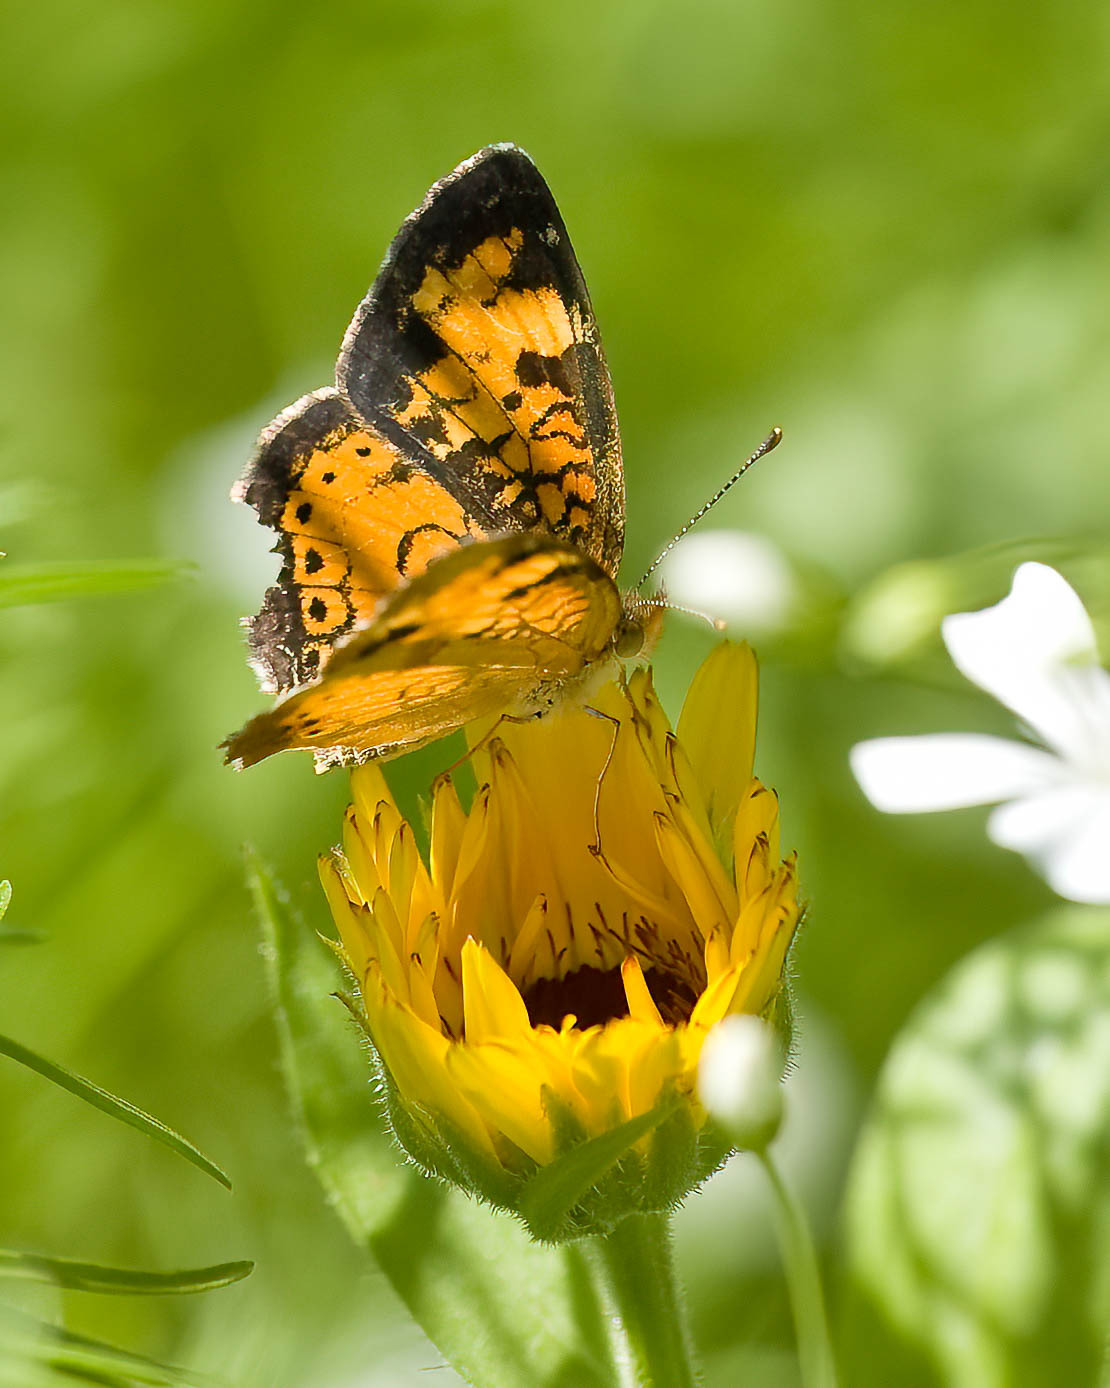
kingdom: Animalia
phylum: Arthropoda
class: Insecta
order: Lepidoptera
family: Nymphalidae
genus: Phyciodes
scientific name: Phyciodes tharos
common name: Pearl crescent
